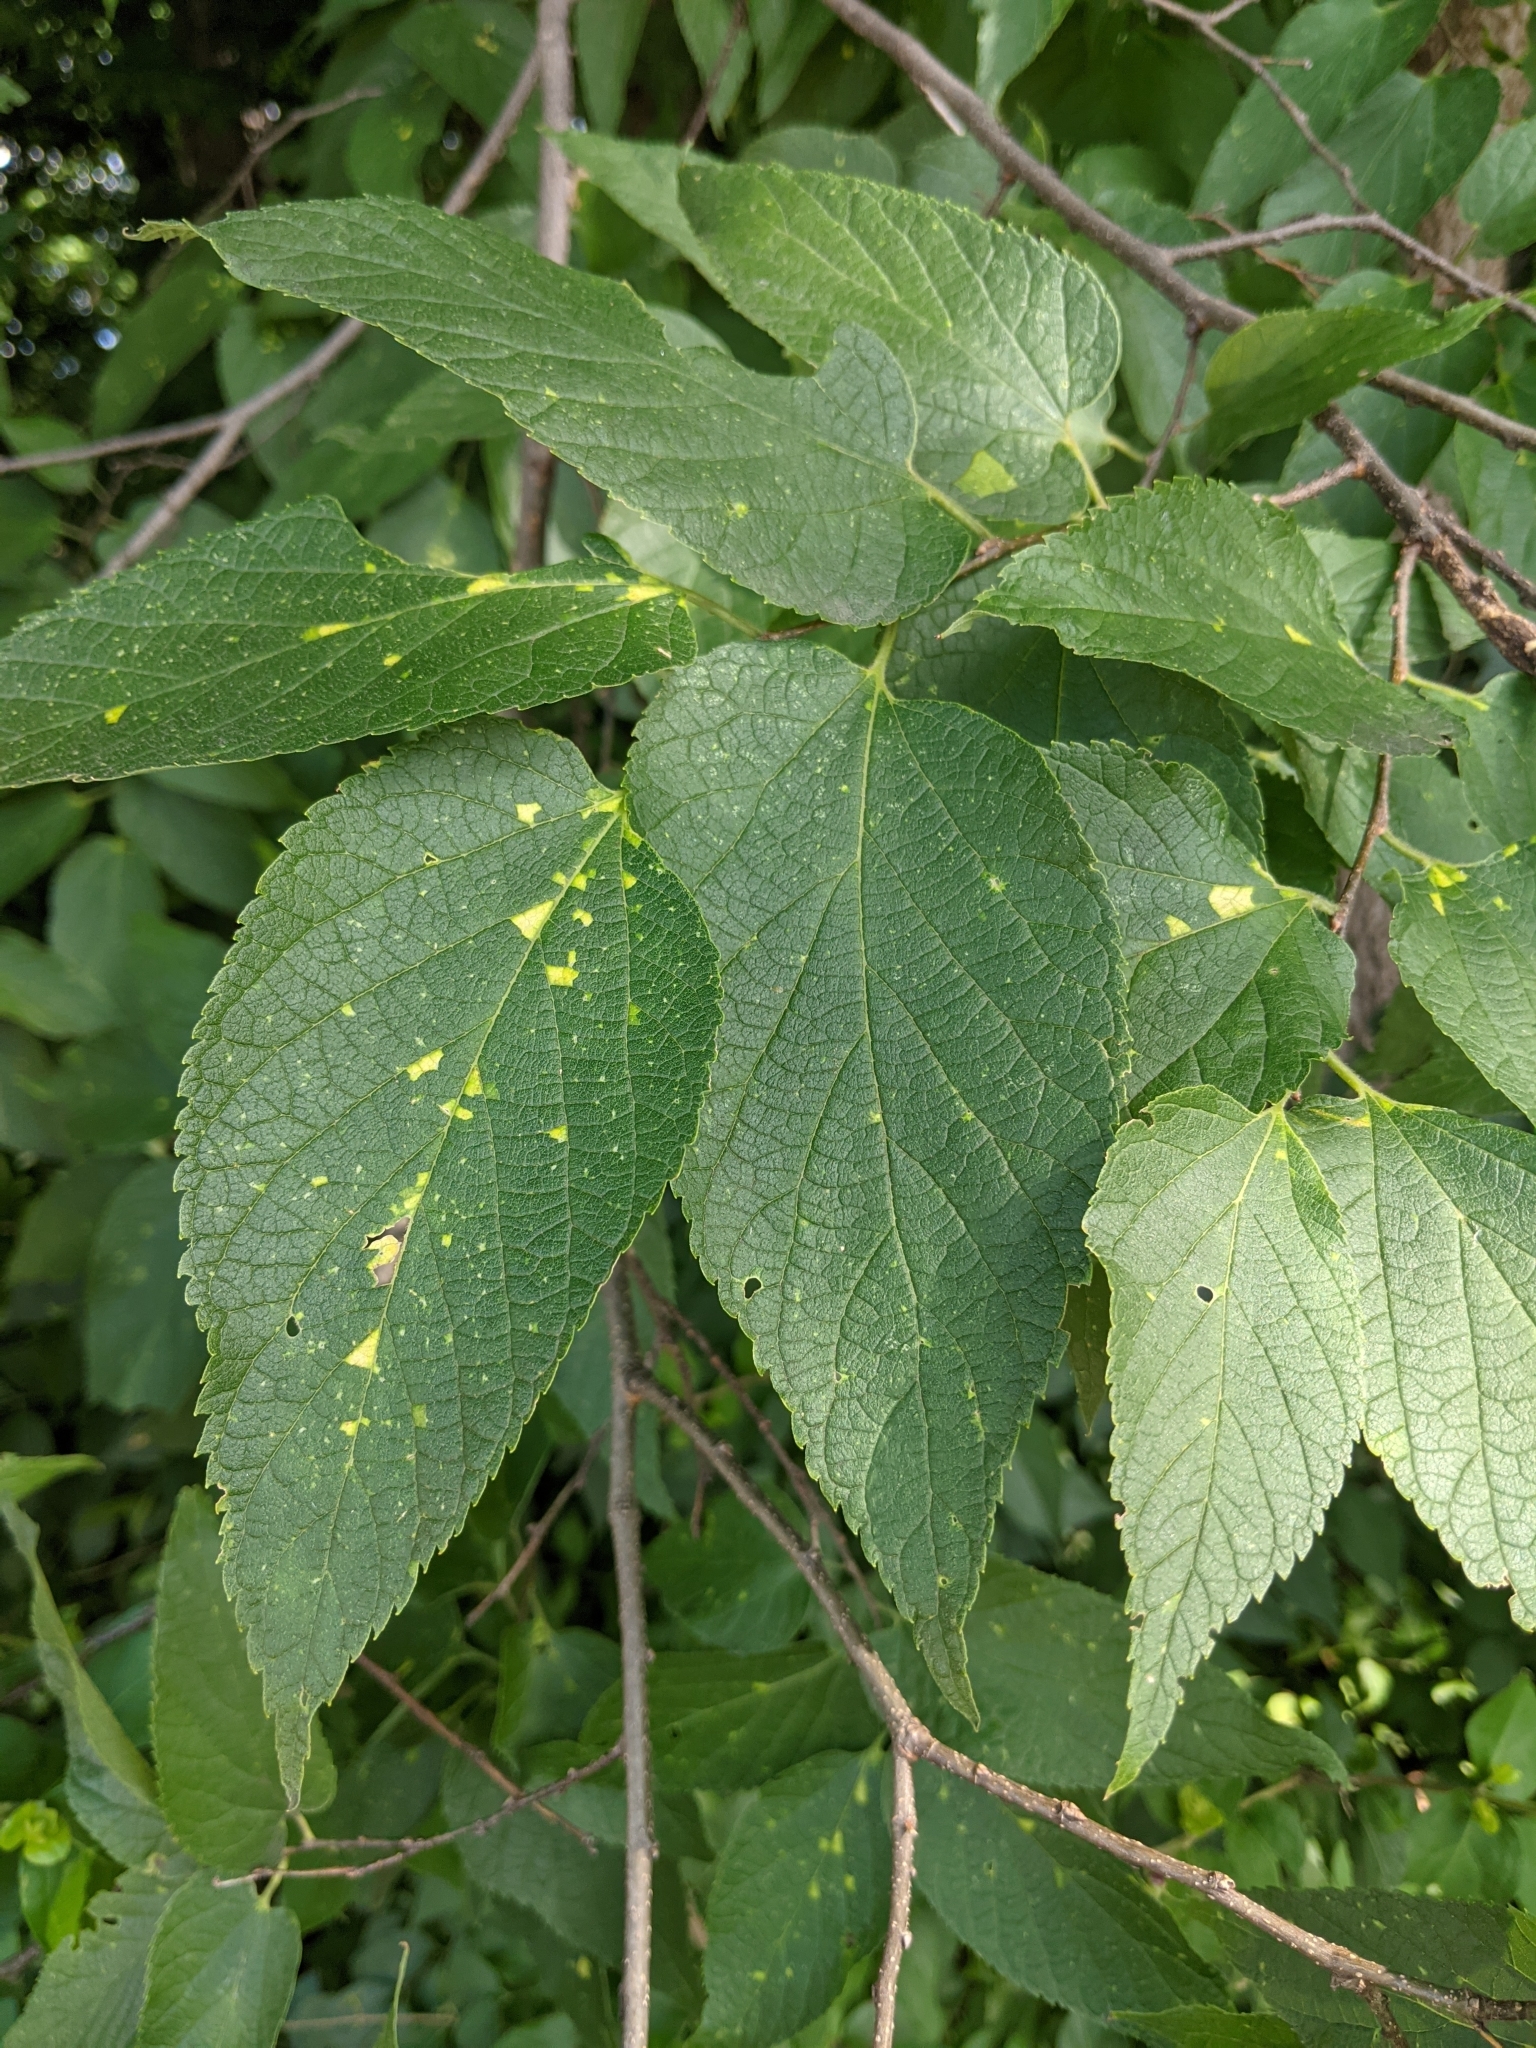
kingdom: Plantae
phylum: Tracheophyta
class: Magnoliopsida
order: Rosales
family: Cannabaceae
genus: Celtis
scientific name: Celtis occidentalis
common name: Common hackberry
